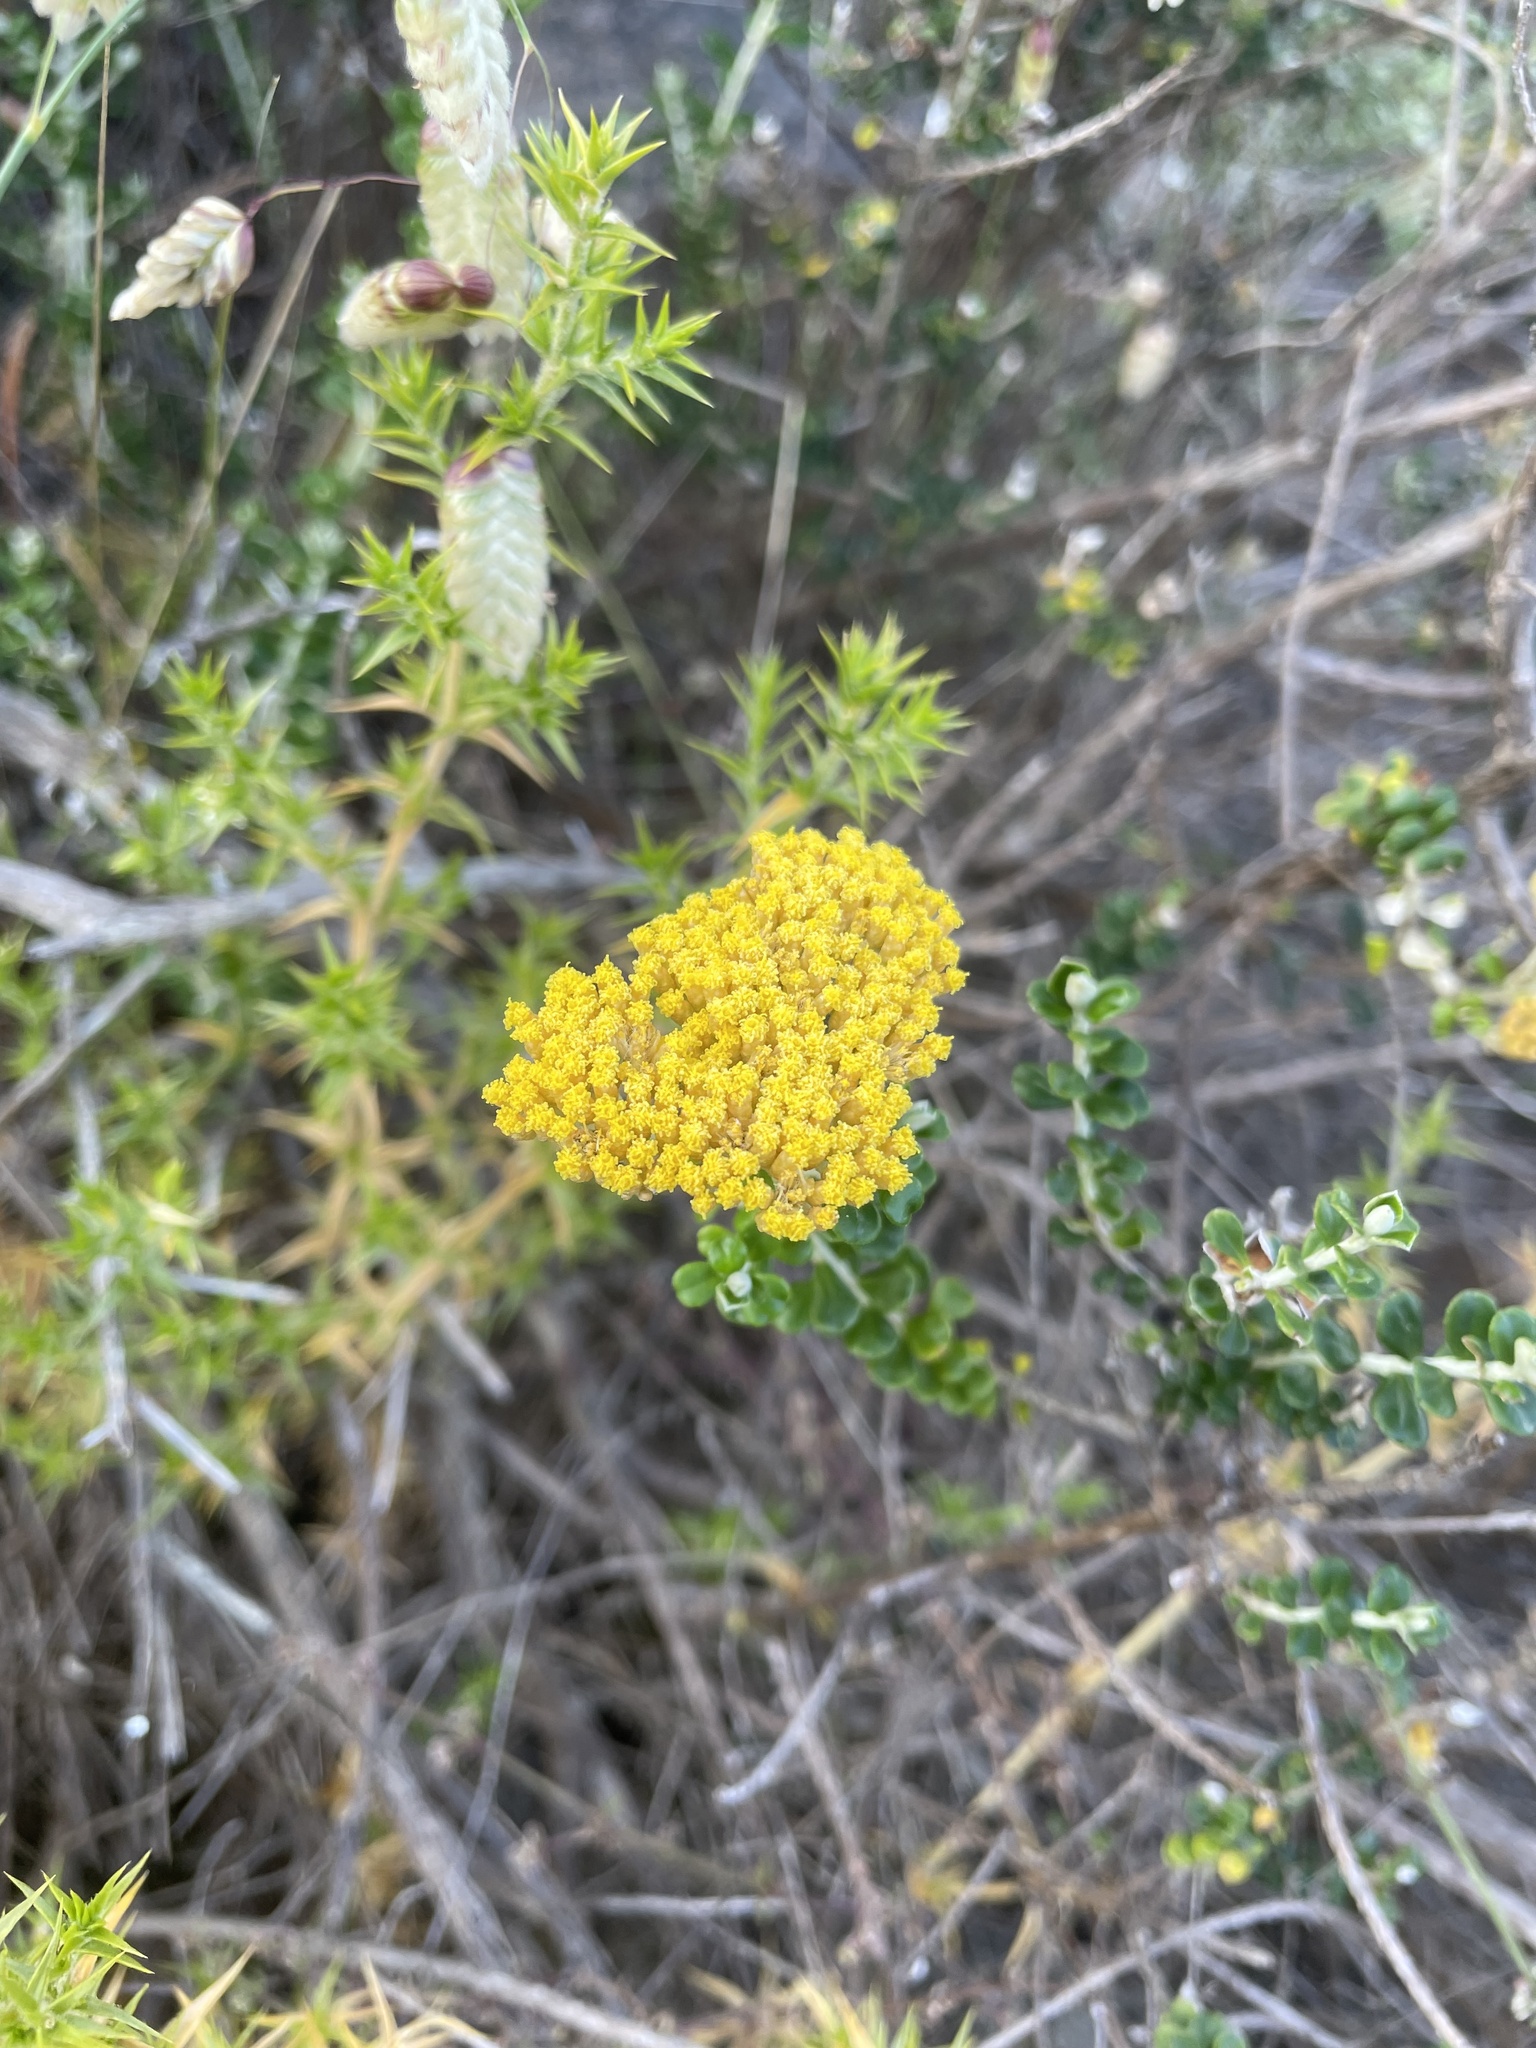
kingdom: Plantae
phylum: Tracheophyta
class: Magnoliopsida
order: Asterales
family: Asteraceae
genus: Ozothamnus
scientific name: Ozothamnus obcordatus
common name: Grey everlasting
